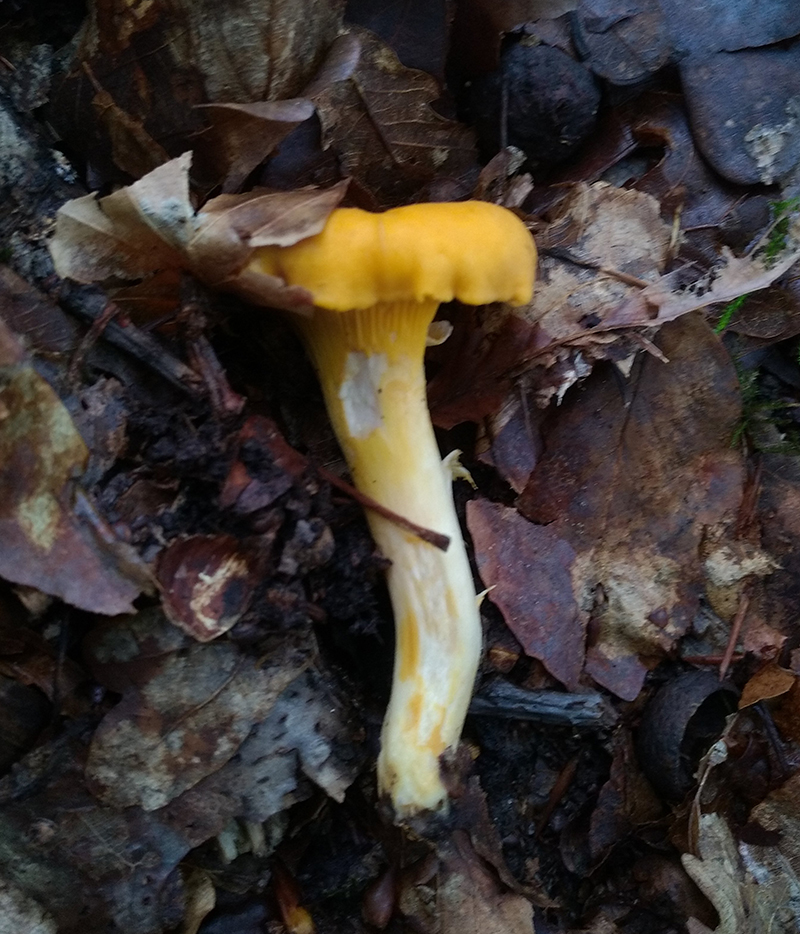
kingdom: Fungi
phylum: Basidiomycota
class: Agaricomycetes
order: Cantharellales
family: Hydnaceae
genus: Cantharellus
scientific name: Cantharellus cibarius
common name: Chanterelle
